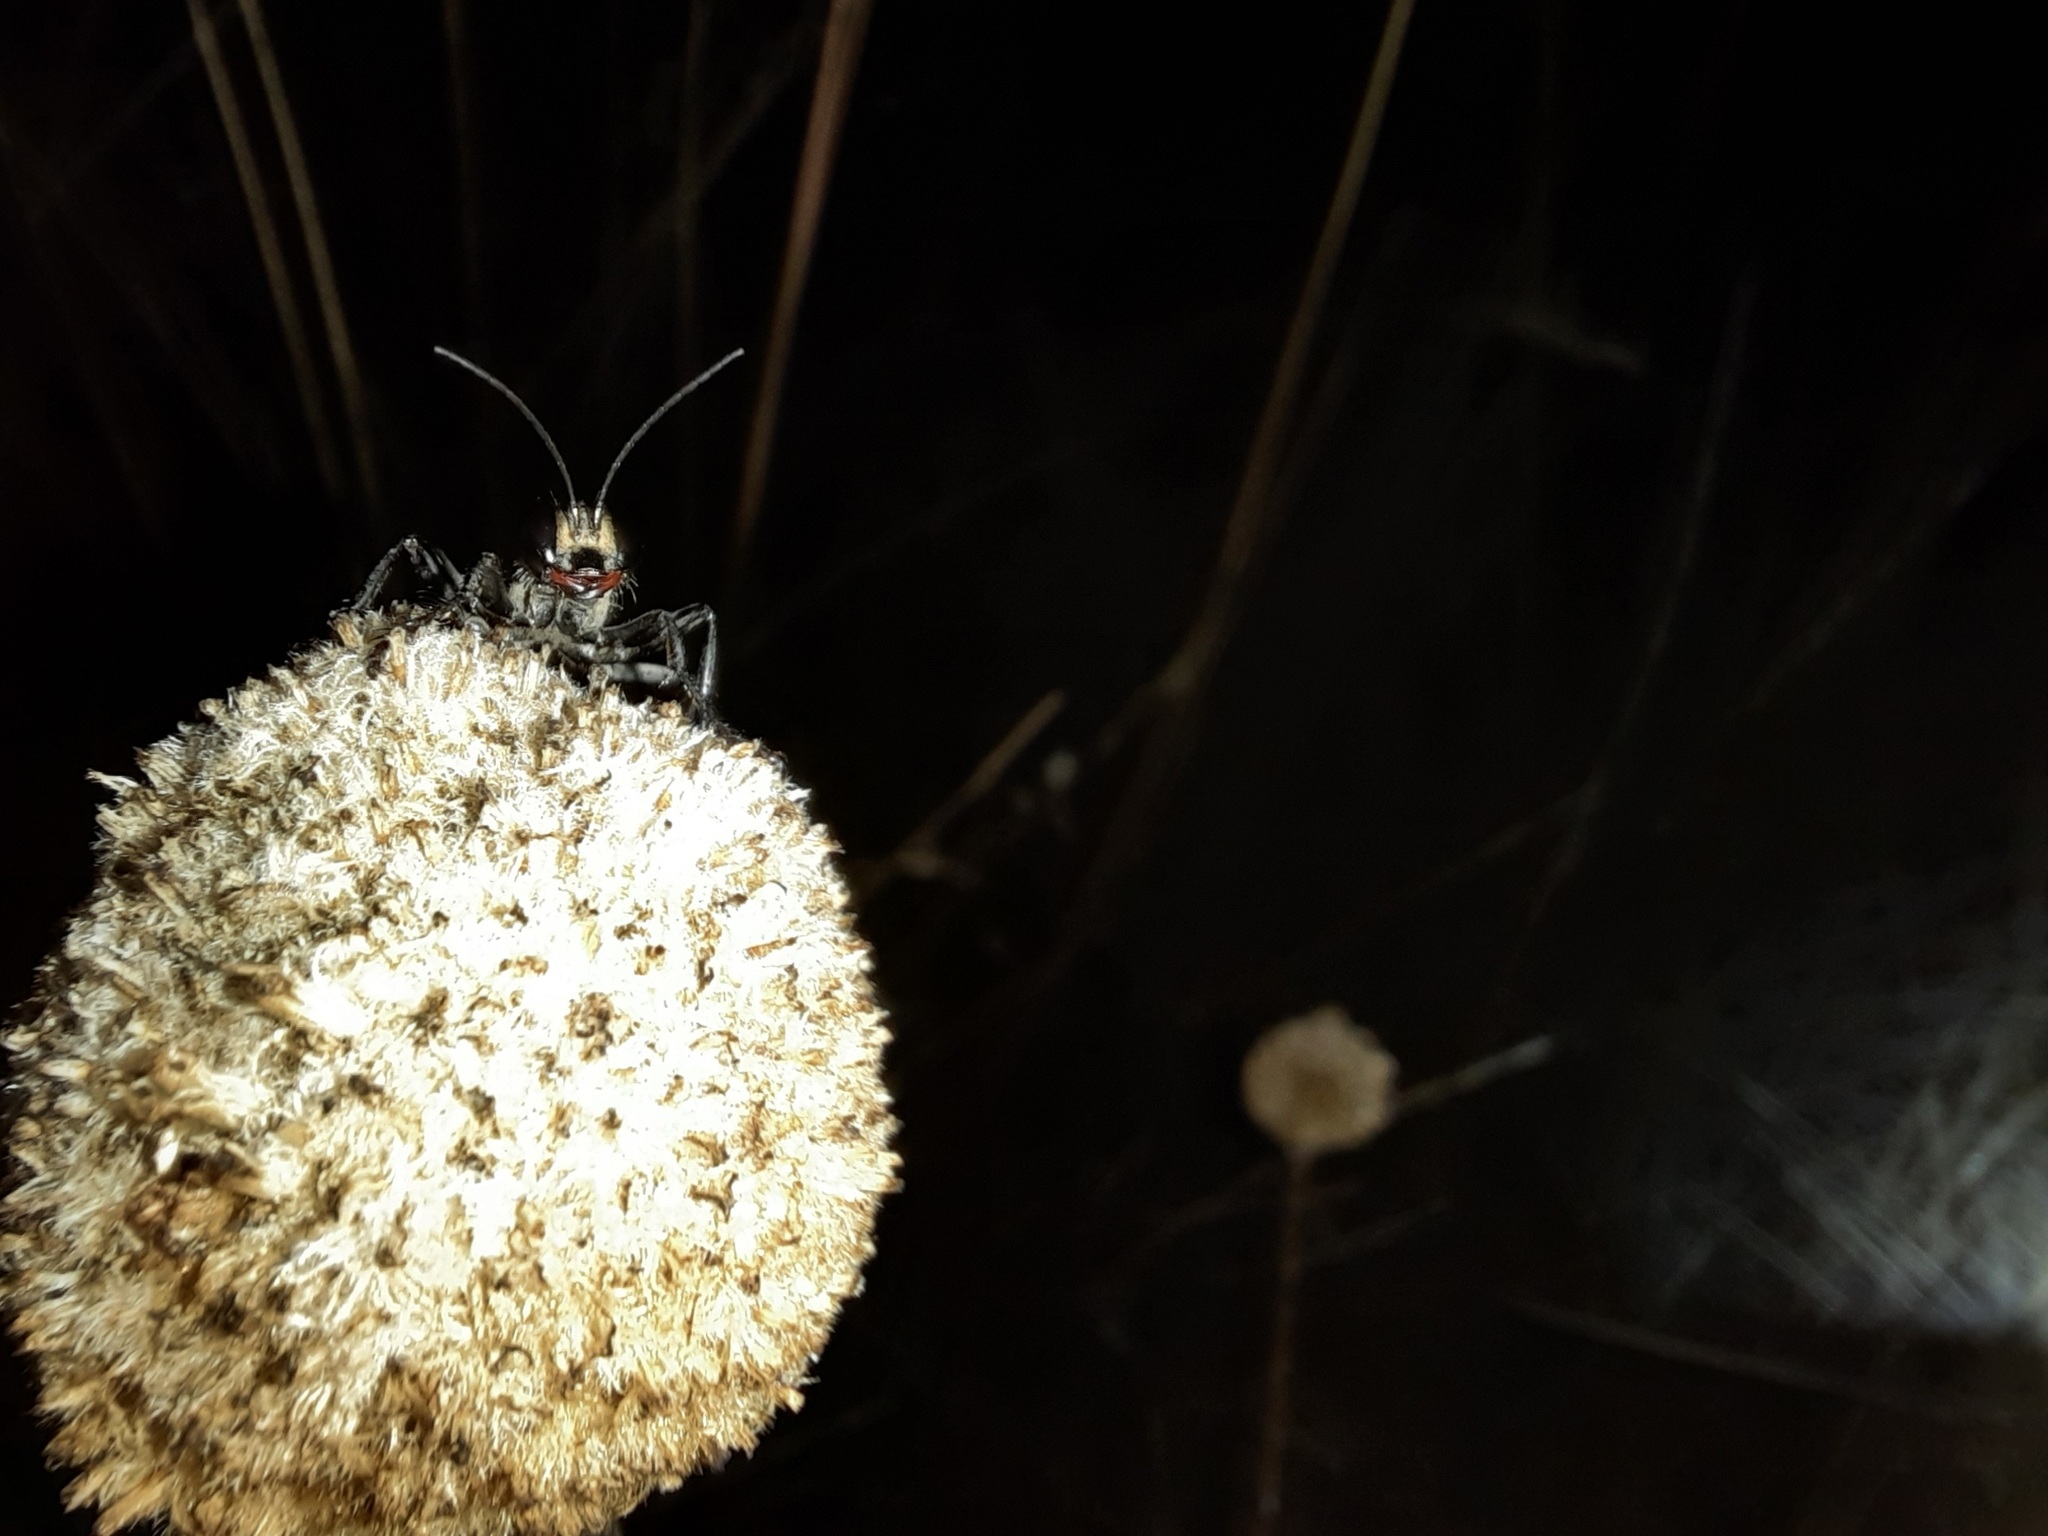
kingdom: Animalia
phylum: Arthropoda
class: Insecta
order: Hymenoptera
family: Sphecidae
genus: Prionyx
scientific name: Prionyx globosus
